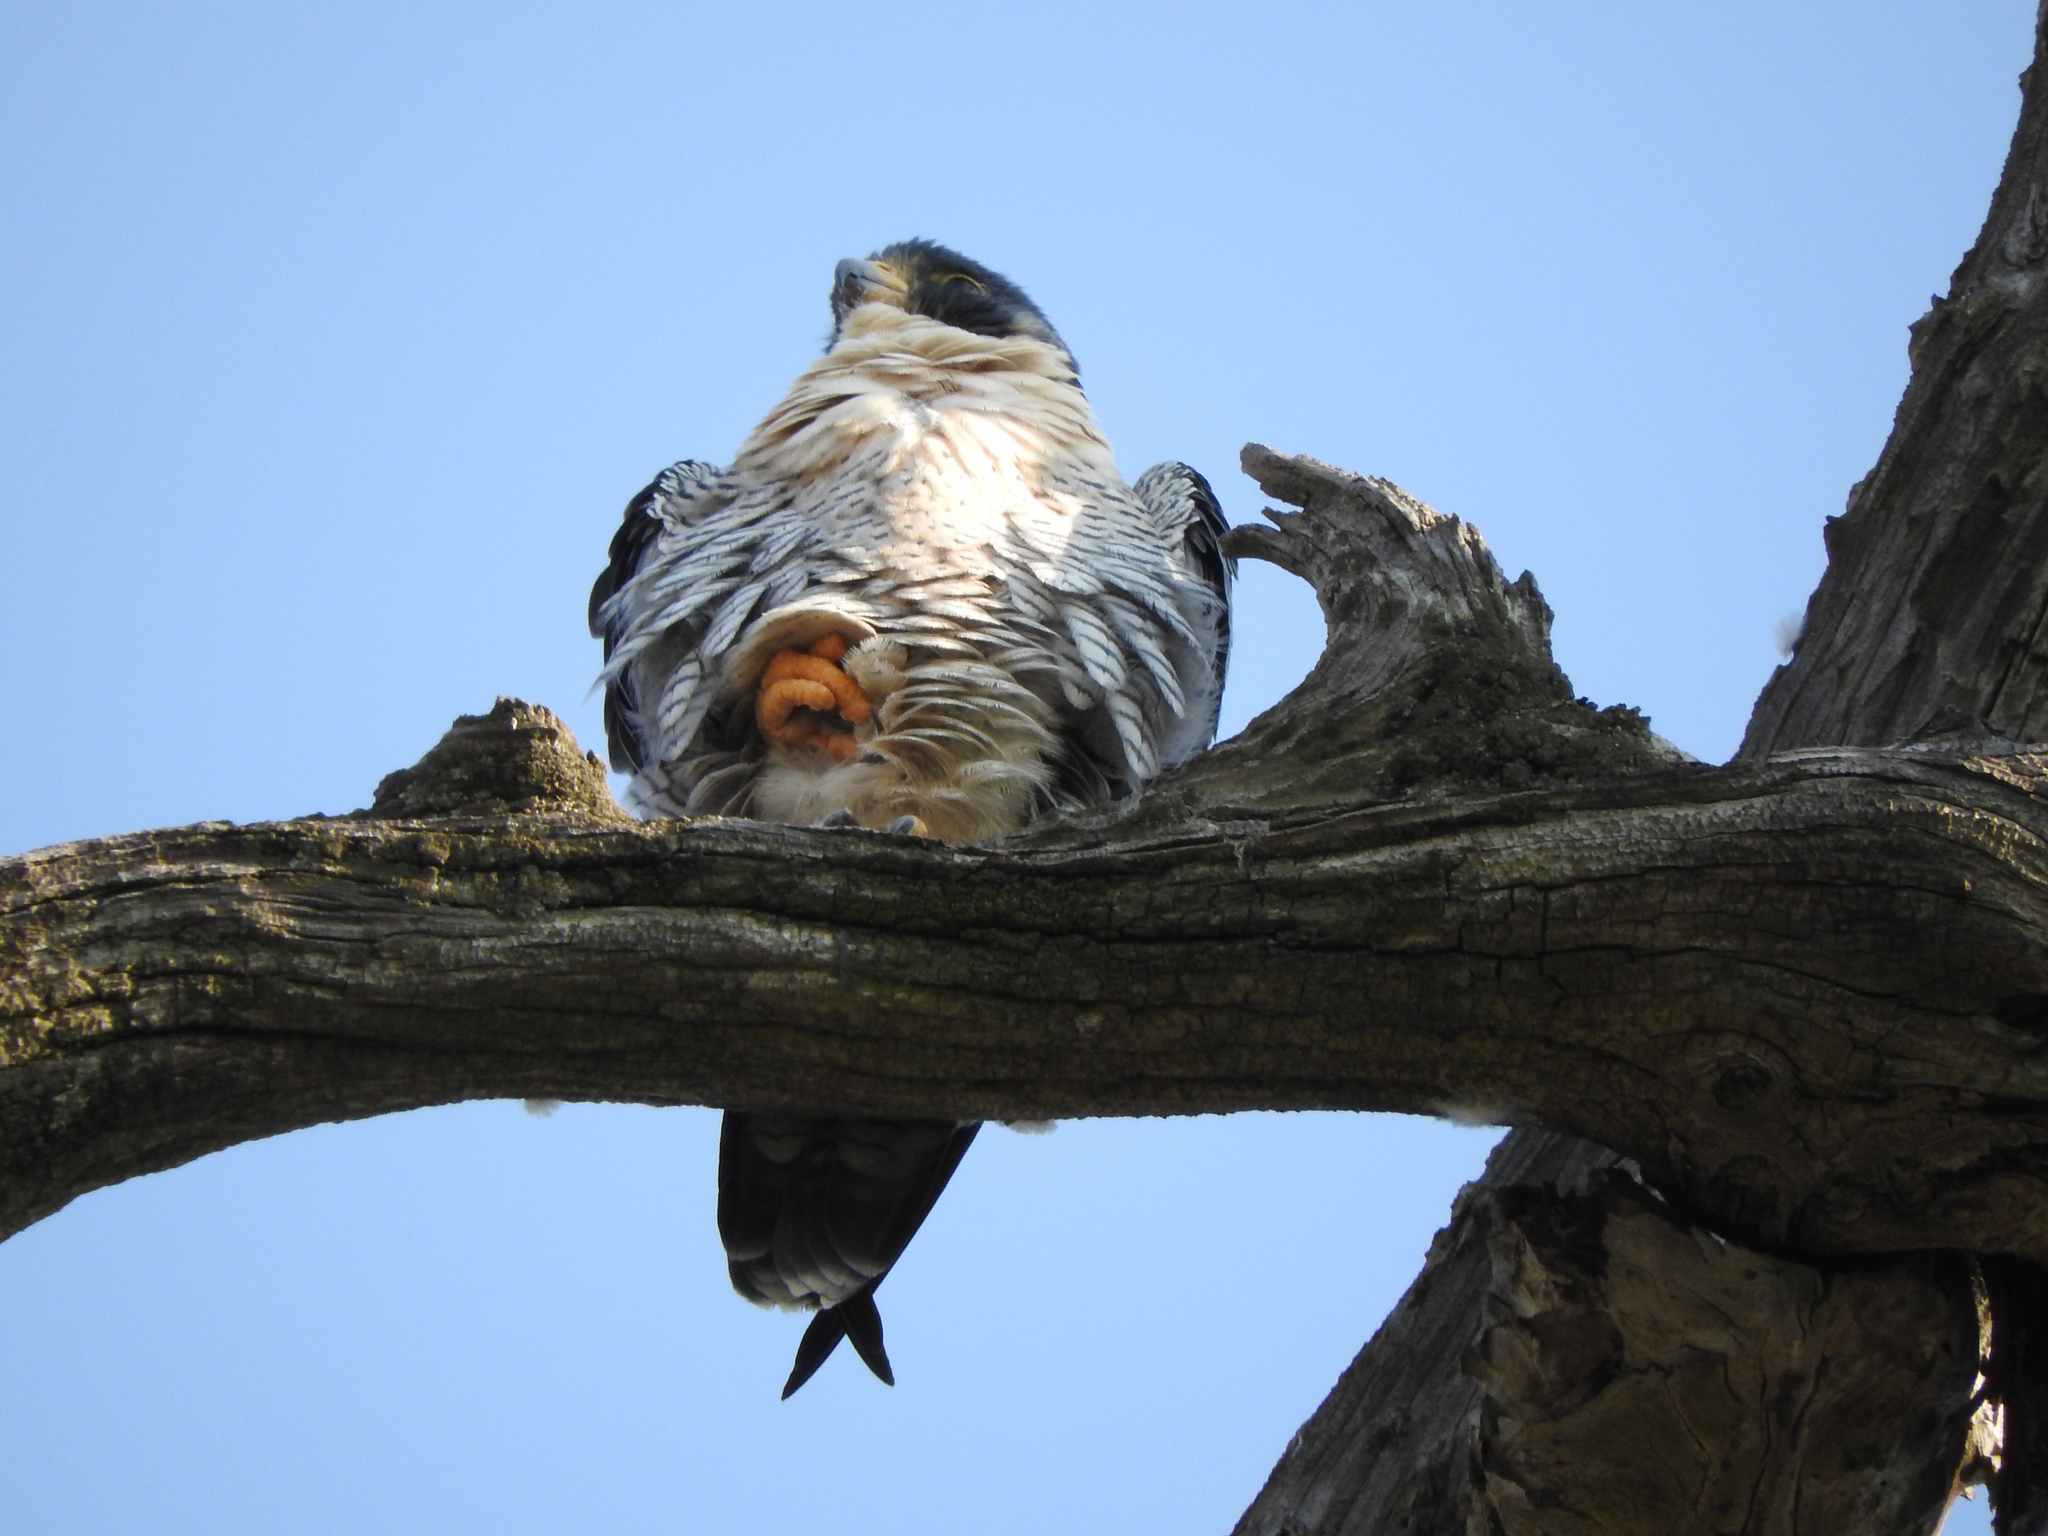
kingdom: Animalia
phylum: Chordata
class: Aves
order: Falconiformes
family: Falconidae
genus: Falco
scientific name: Falco peregrinus
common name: Peregrine falcon
